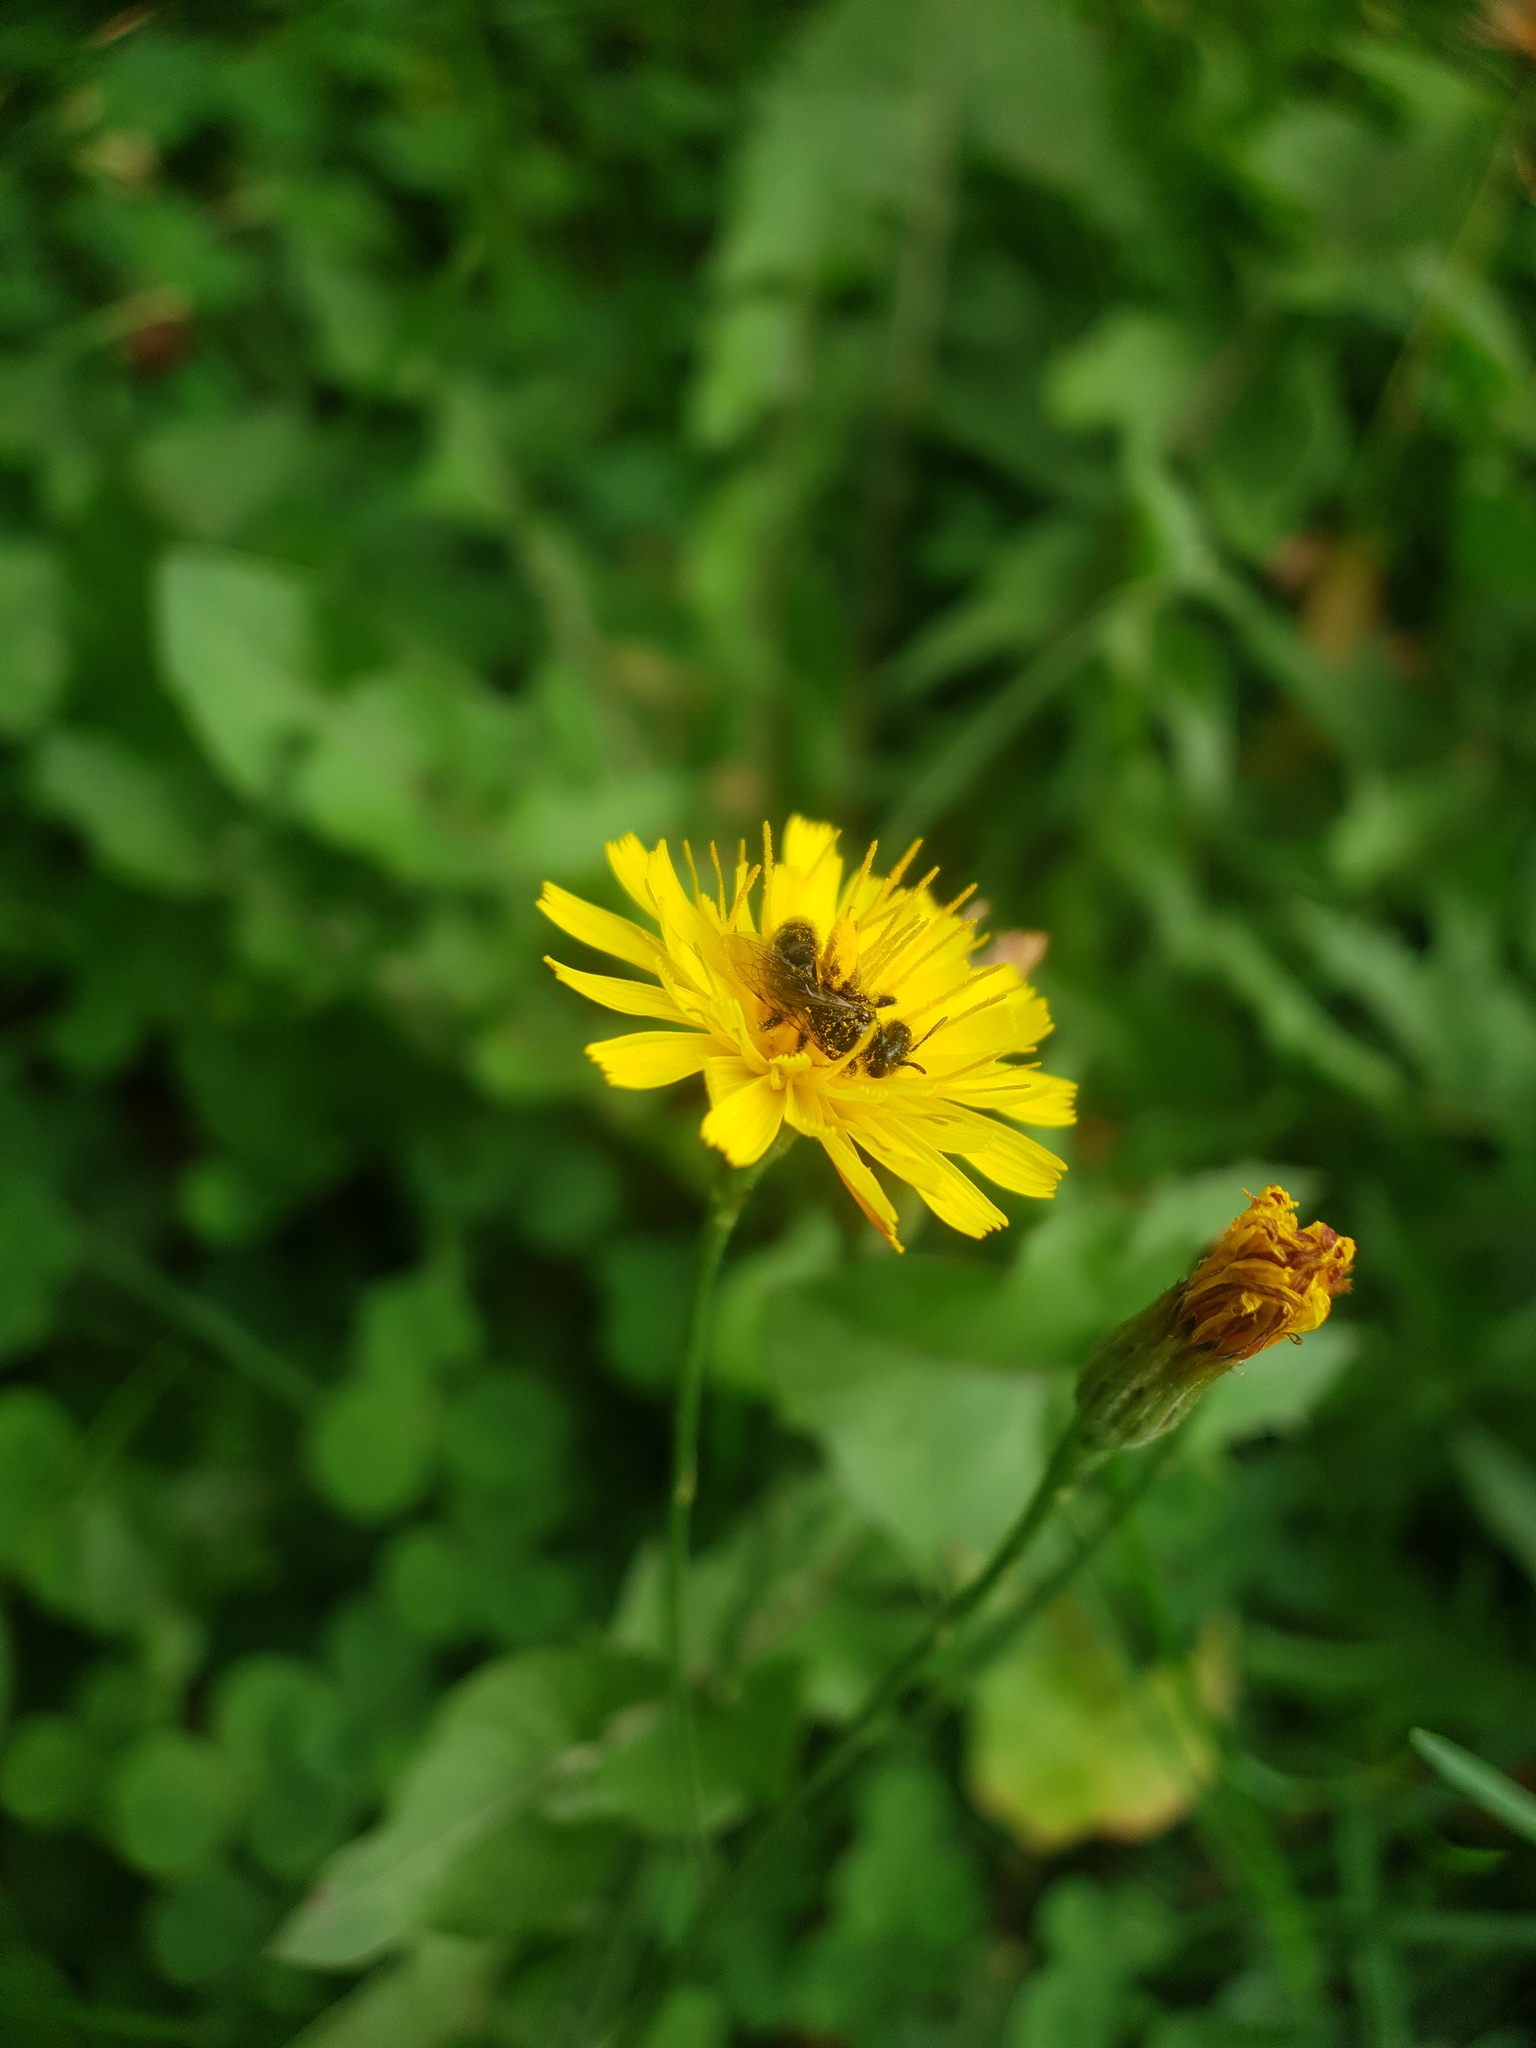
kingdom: Animalia
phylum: Arthropoda
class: Insecta
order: Hymenoptera
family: Andrenidae
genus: Panurgus
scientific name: Panurgus calcaratus
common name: Small shaggy bee
